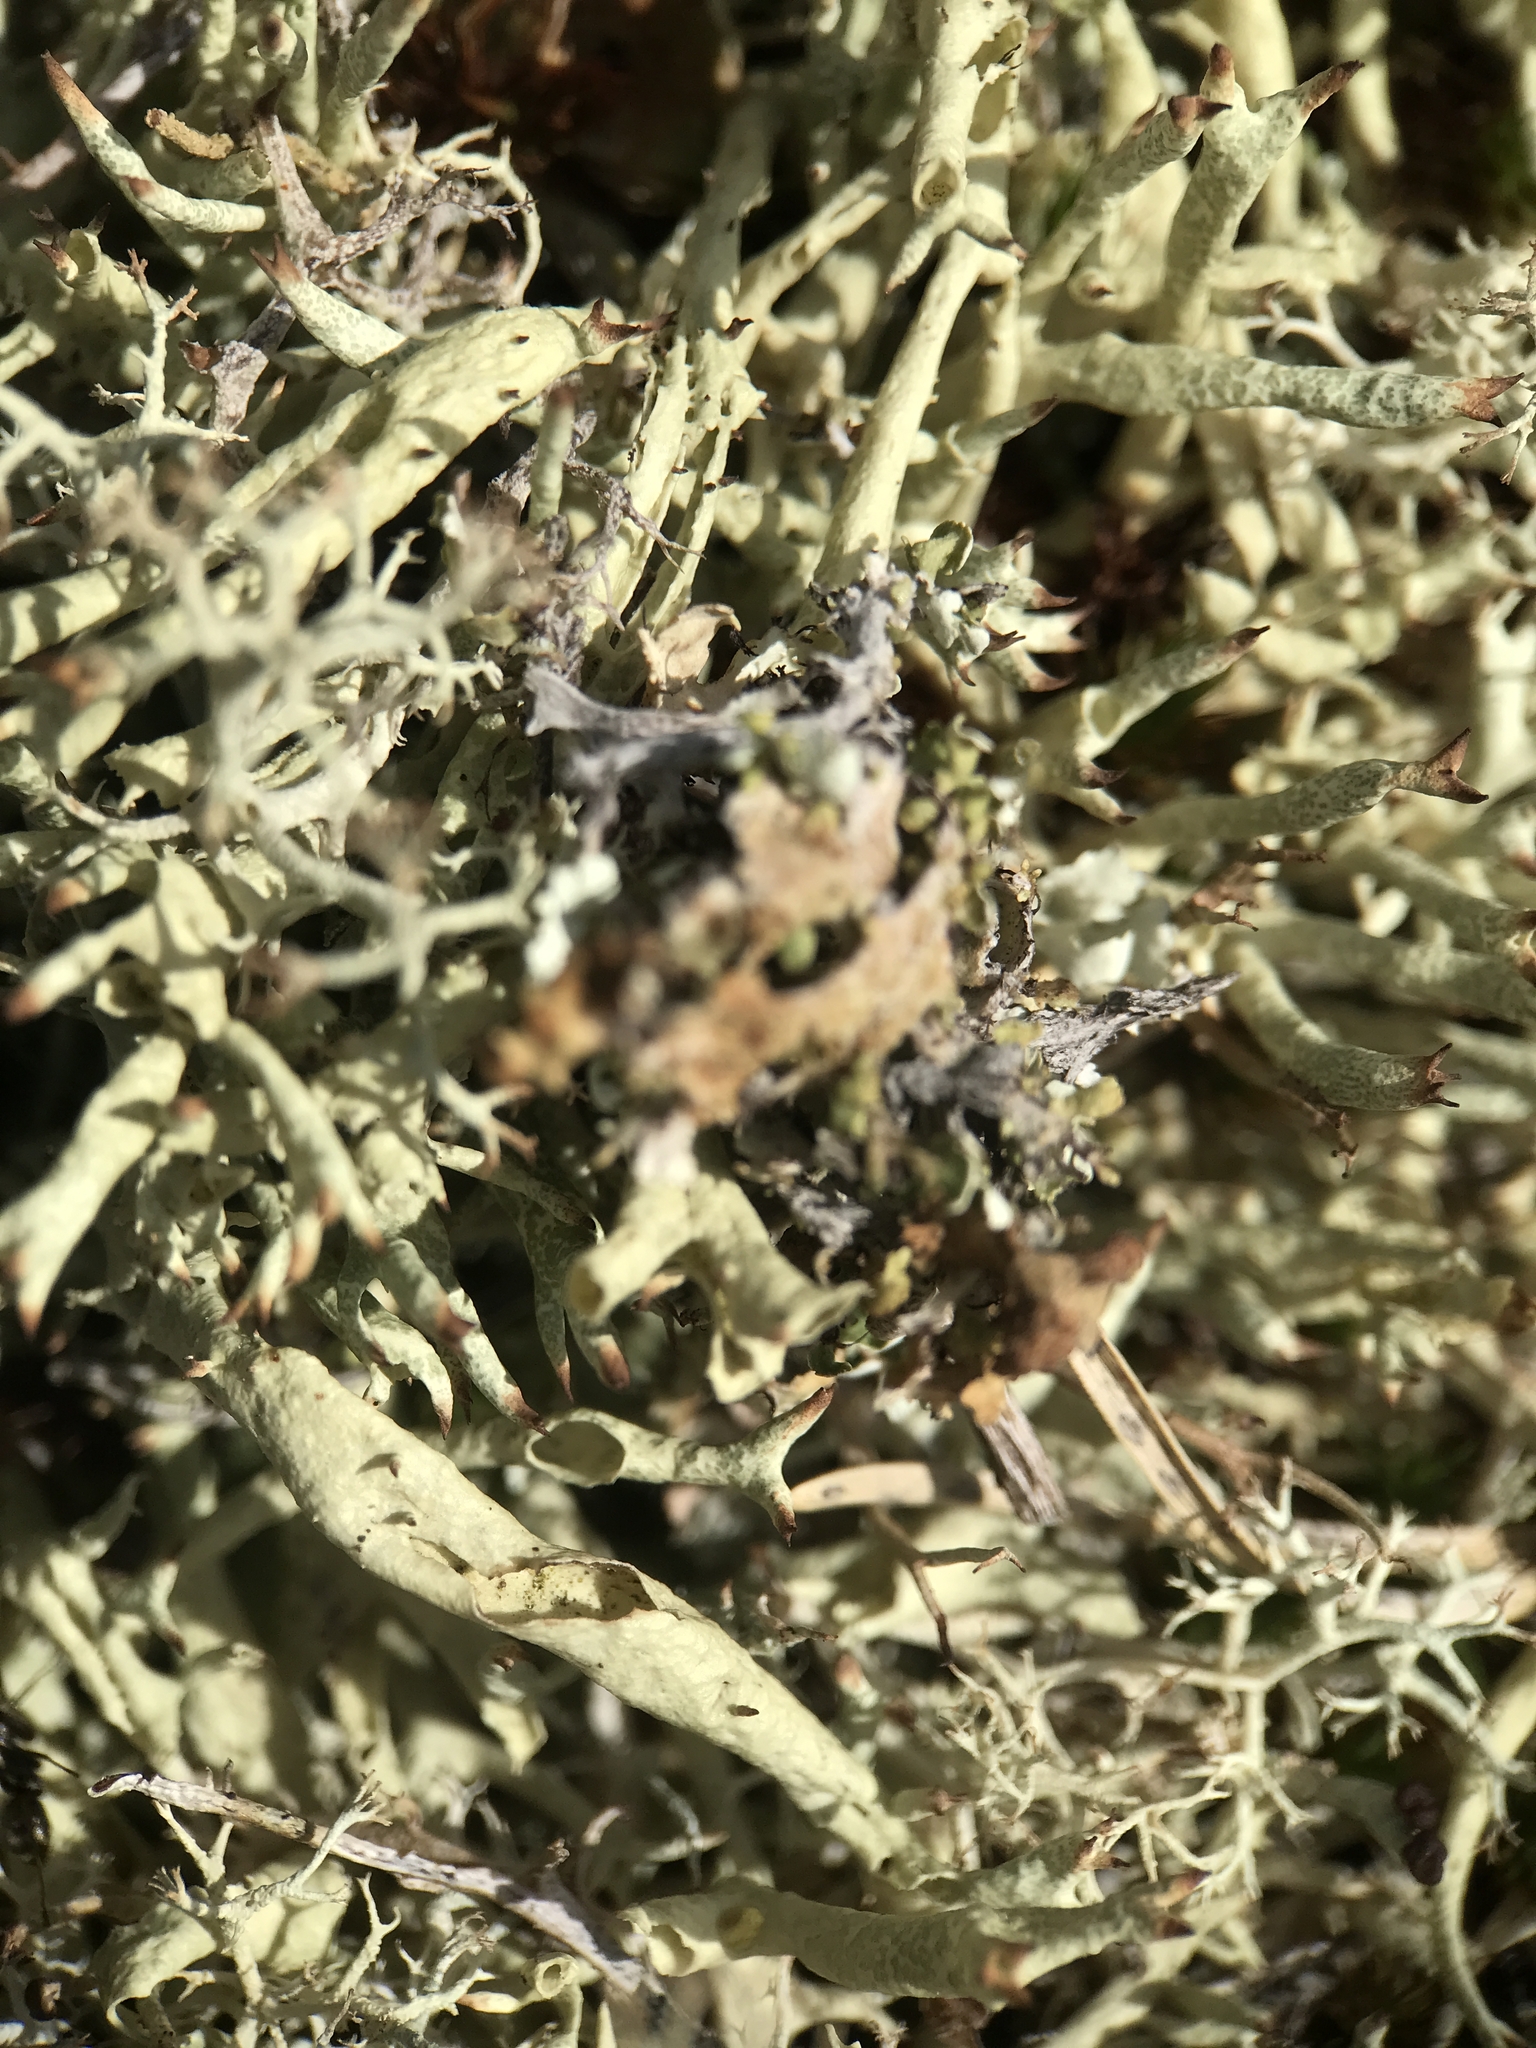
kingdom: Fungi
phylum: Ascomycota
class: Lecanoromycetes
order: Lecanorales
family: Cladoniaceae
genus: Cladonia
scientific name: Cladonia uncialis
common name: Thorn lichen
